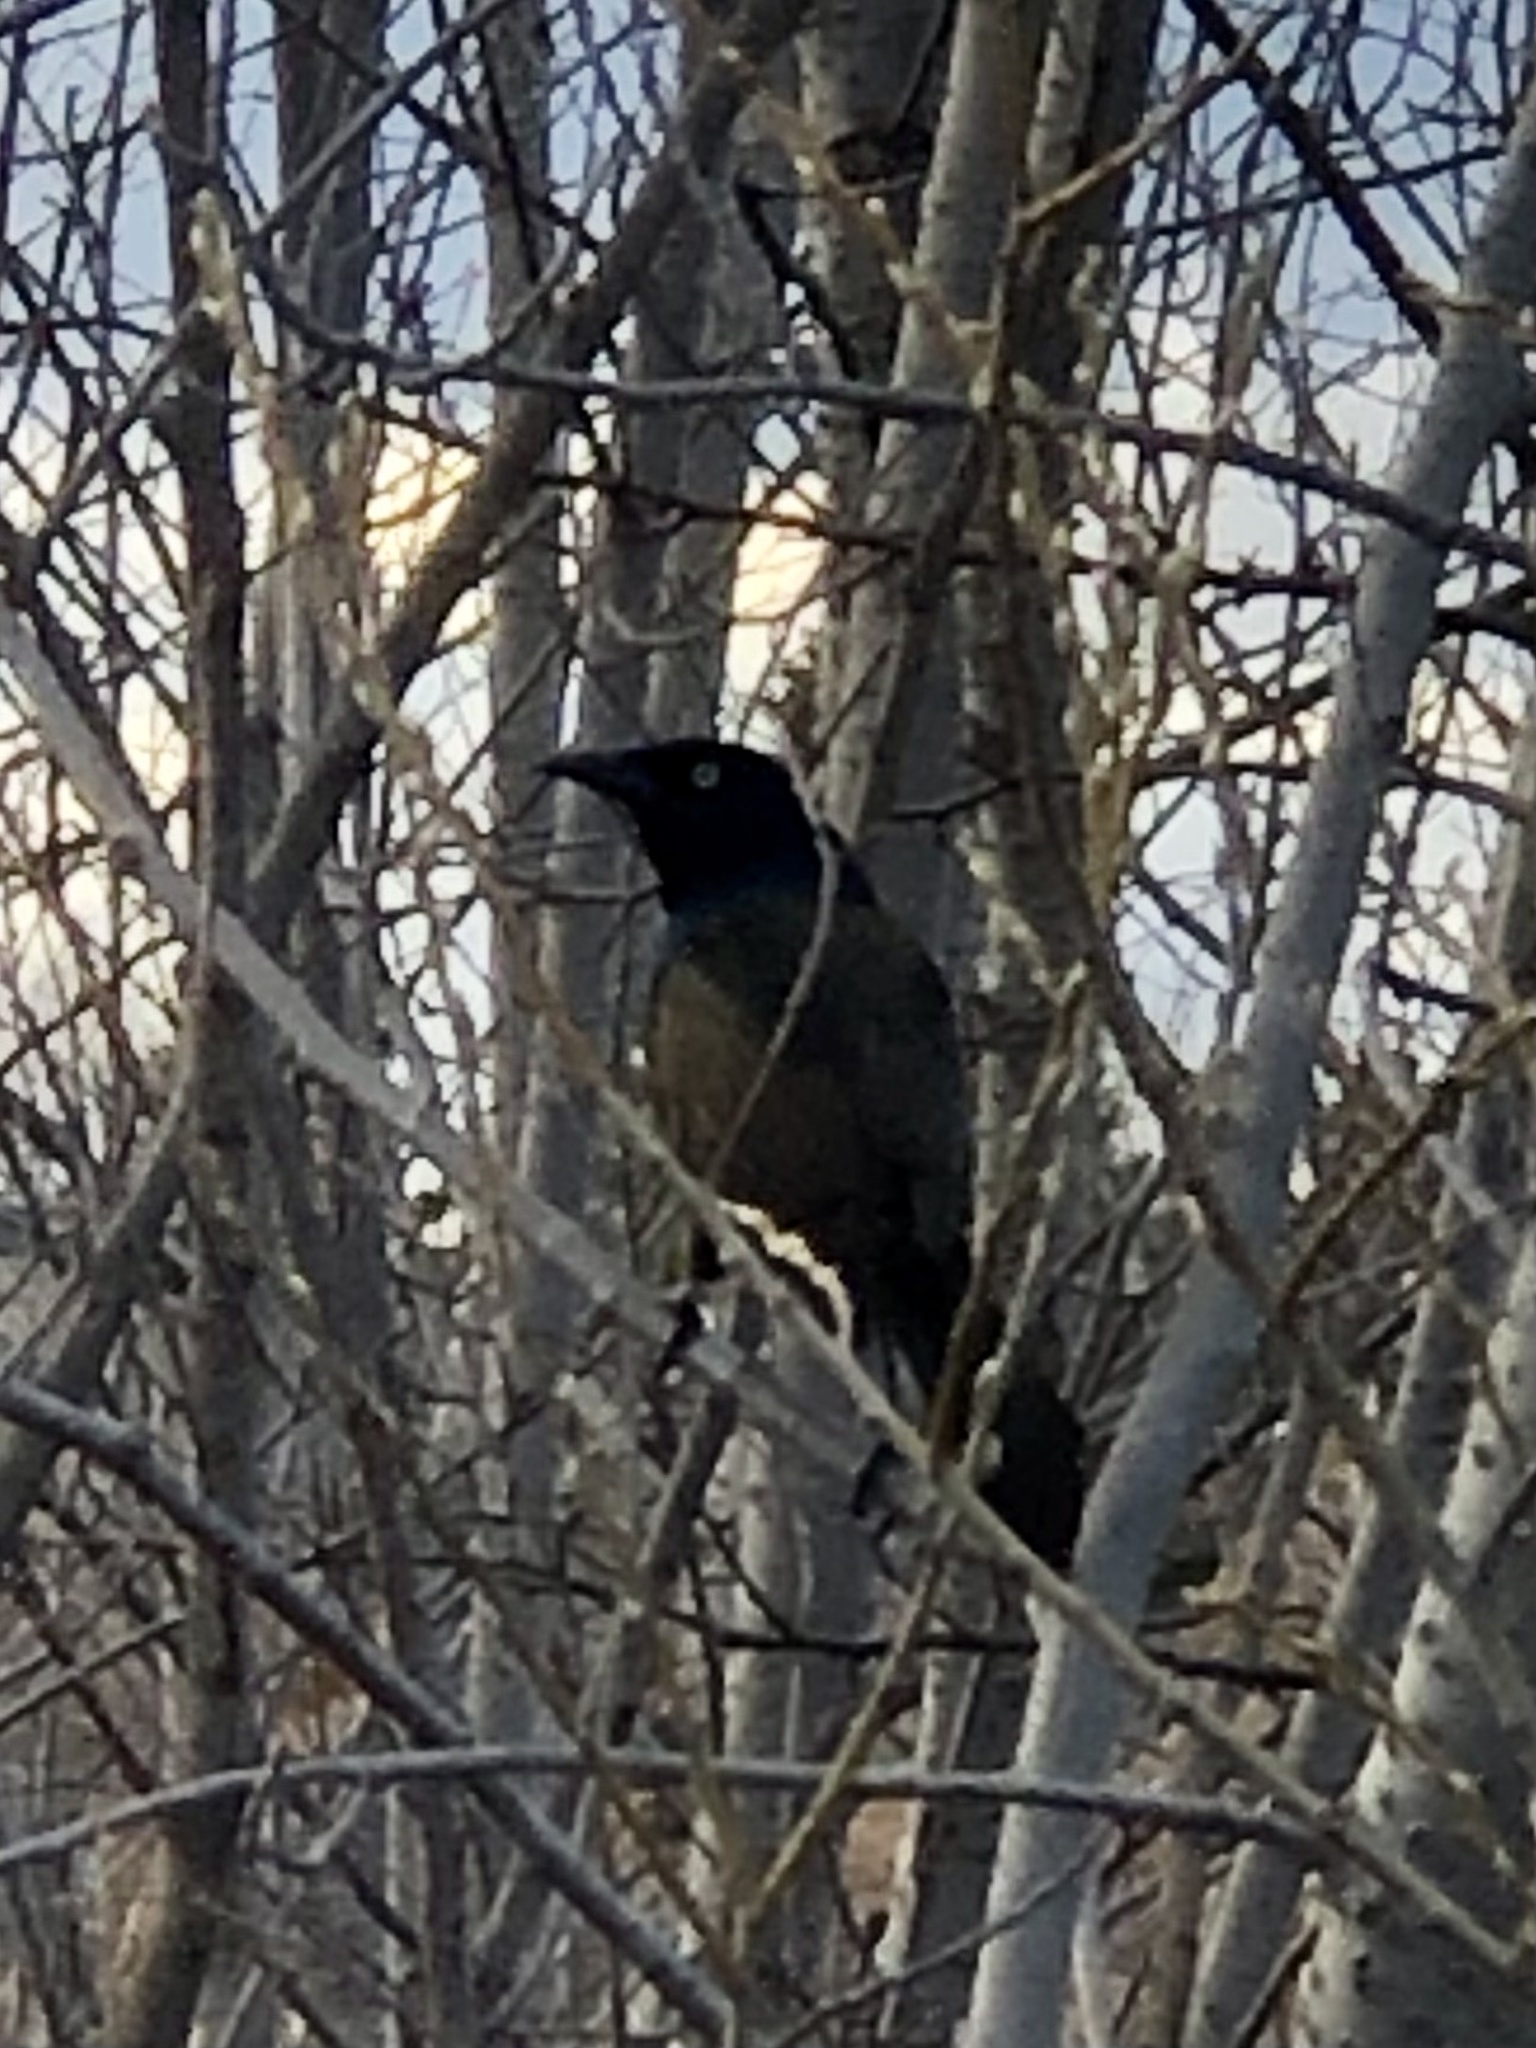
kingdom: Animalia
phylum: Chordata
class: Aves
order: Passeriformes
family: Icteridae
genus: Quiscalus
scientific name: Quiscalus quiscula
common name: Common grackle
